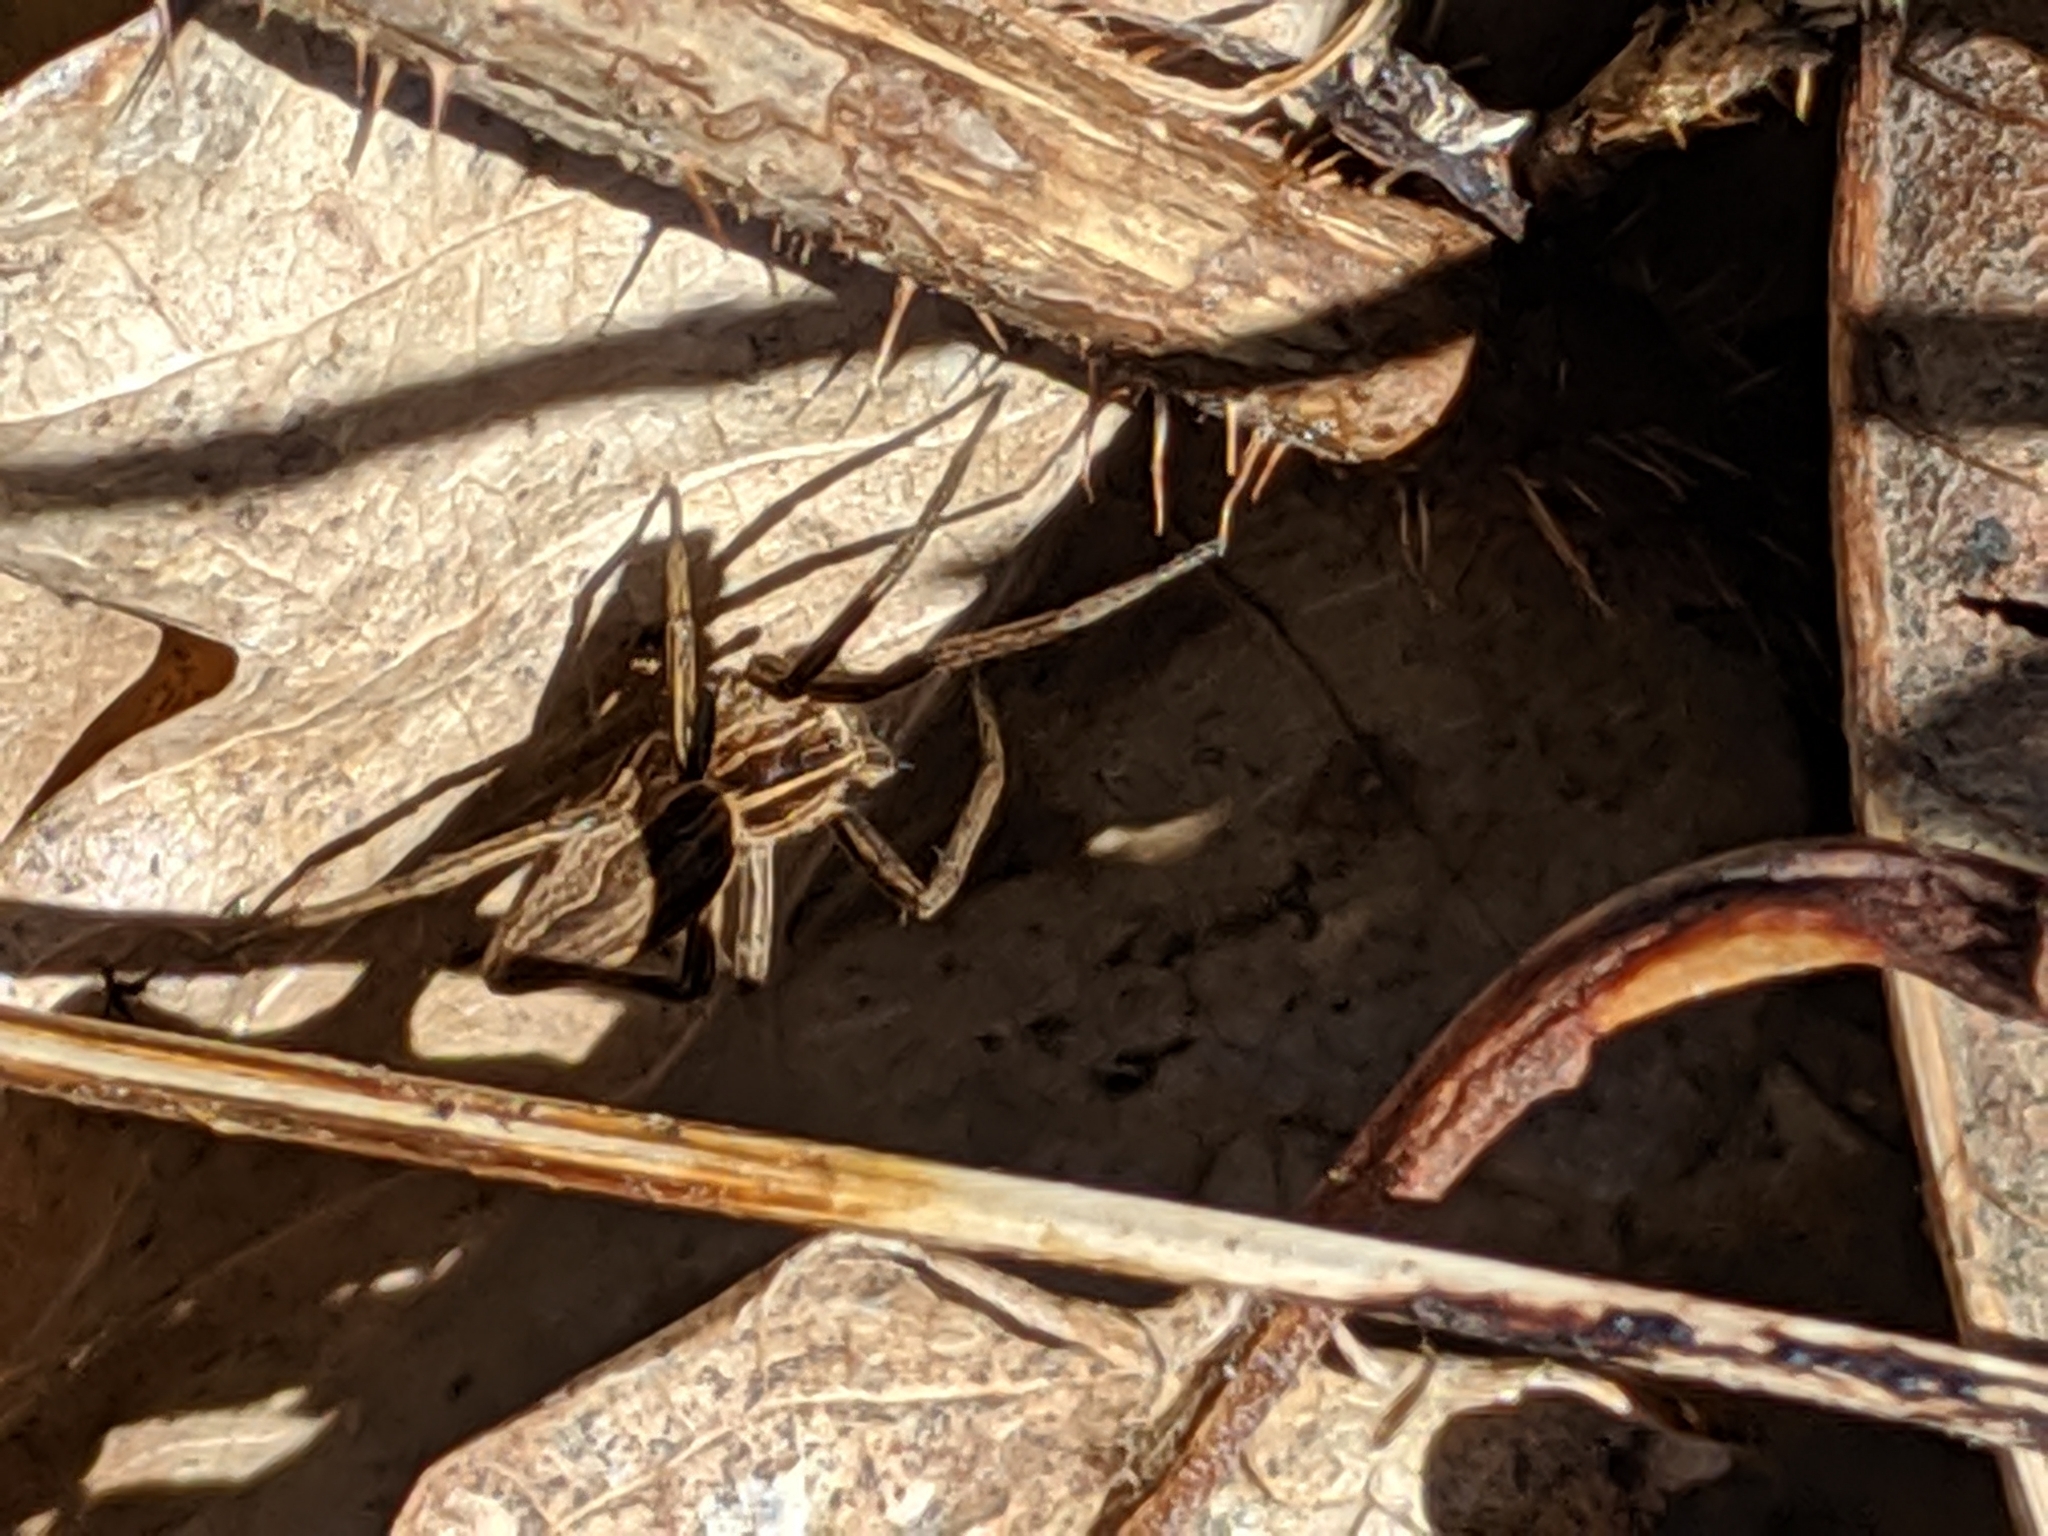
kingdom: Animalia
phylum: Arthropoda
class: Arachnida
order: Araneae
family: Pisauridae
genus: Pisaura
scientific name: Pisaura mirabilis
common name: Tent spider
